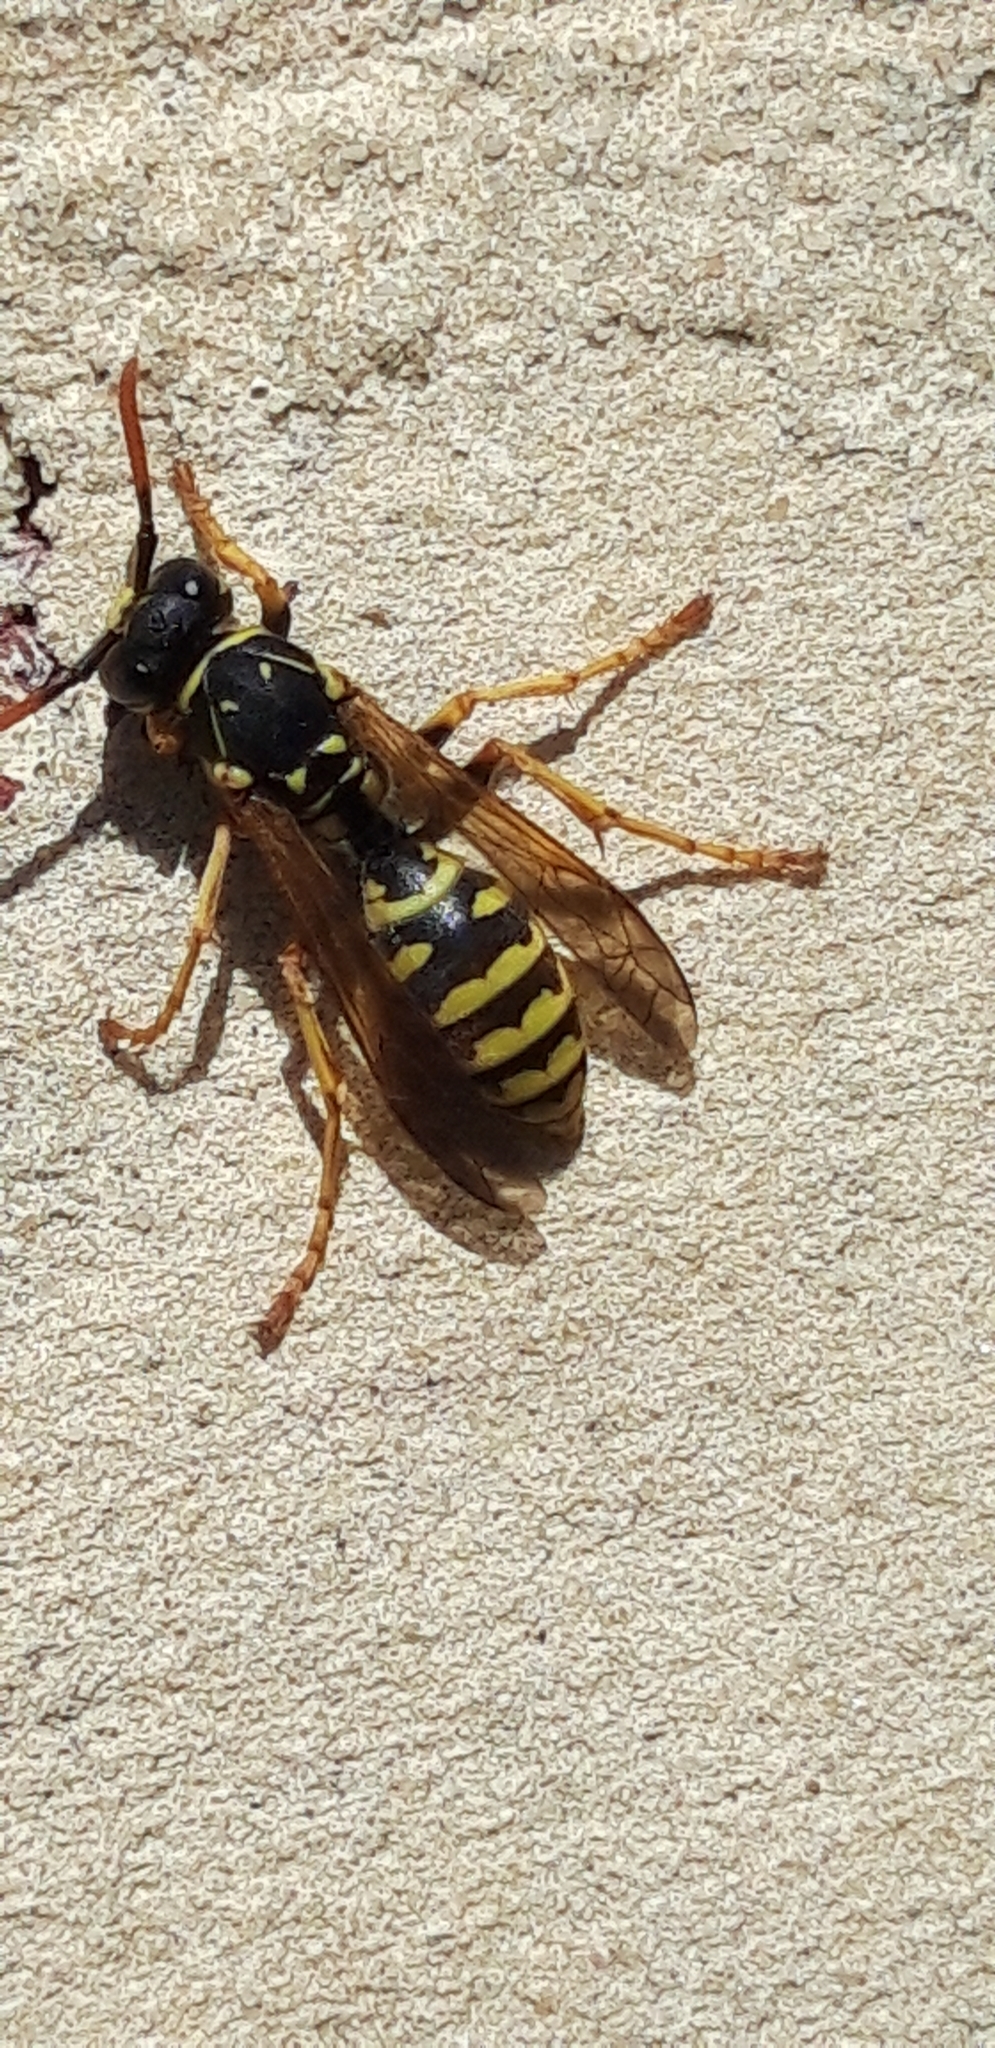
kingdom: Animalia
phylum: Arthropoda
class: Insecta
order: Hymenoptera
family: Eumenidae
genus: Polistes
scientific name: Polistes dominula
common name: Paper wasp
